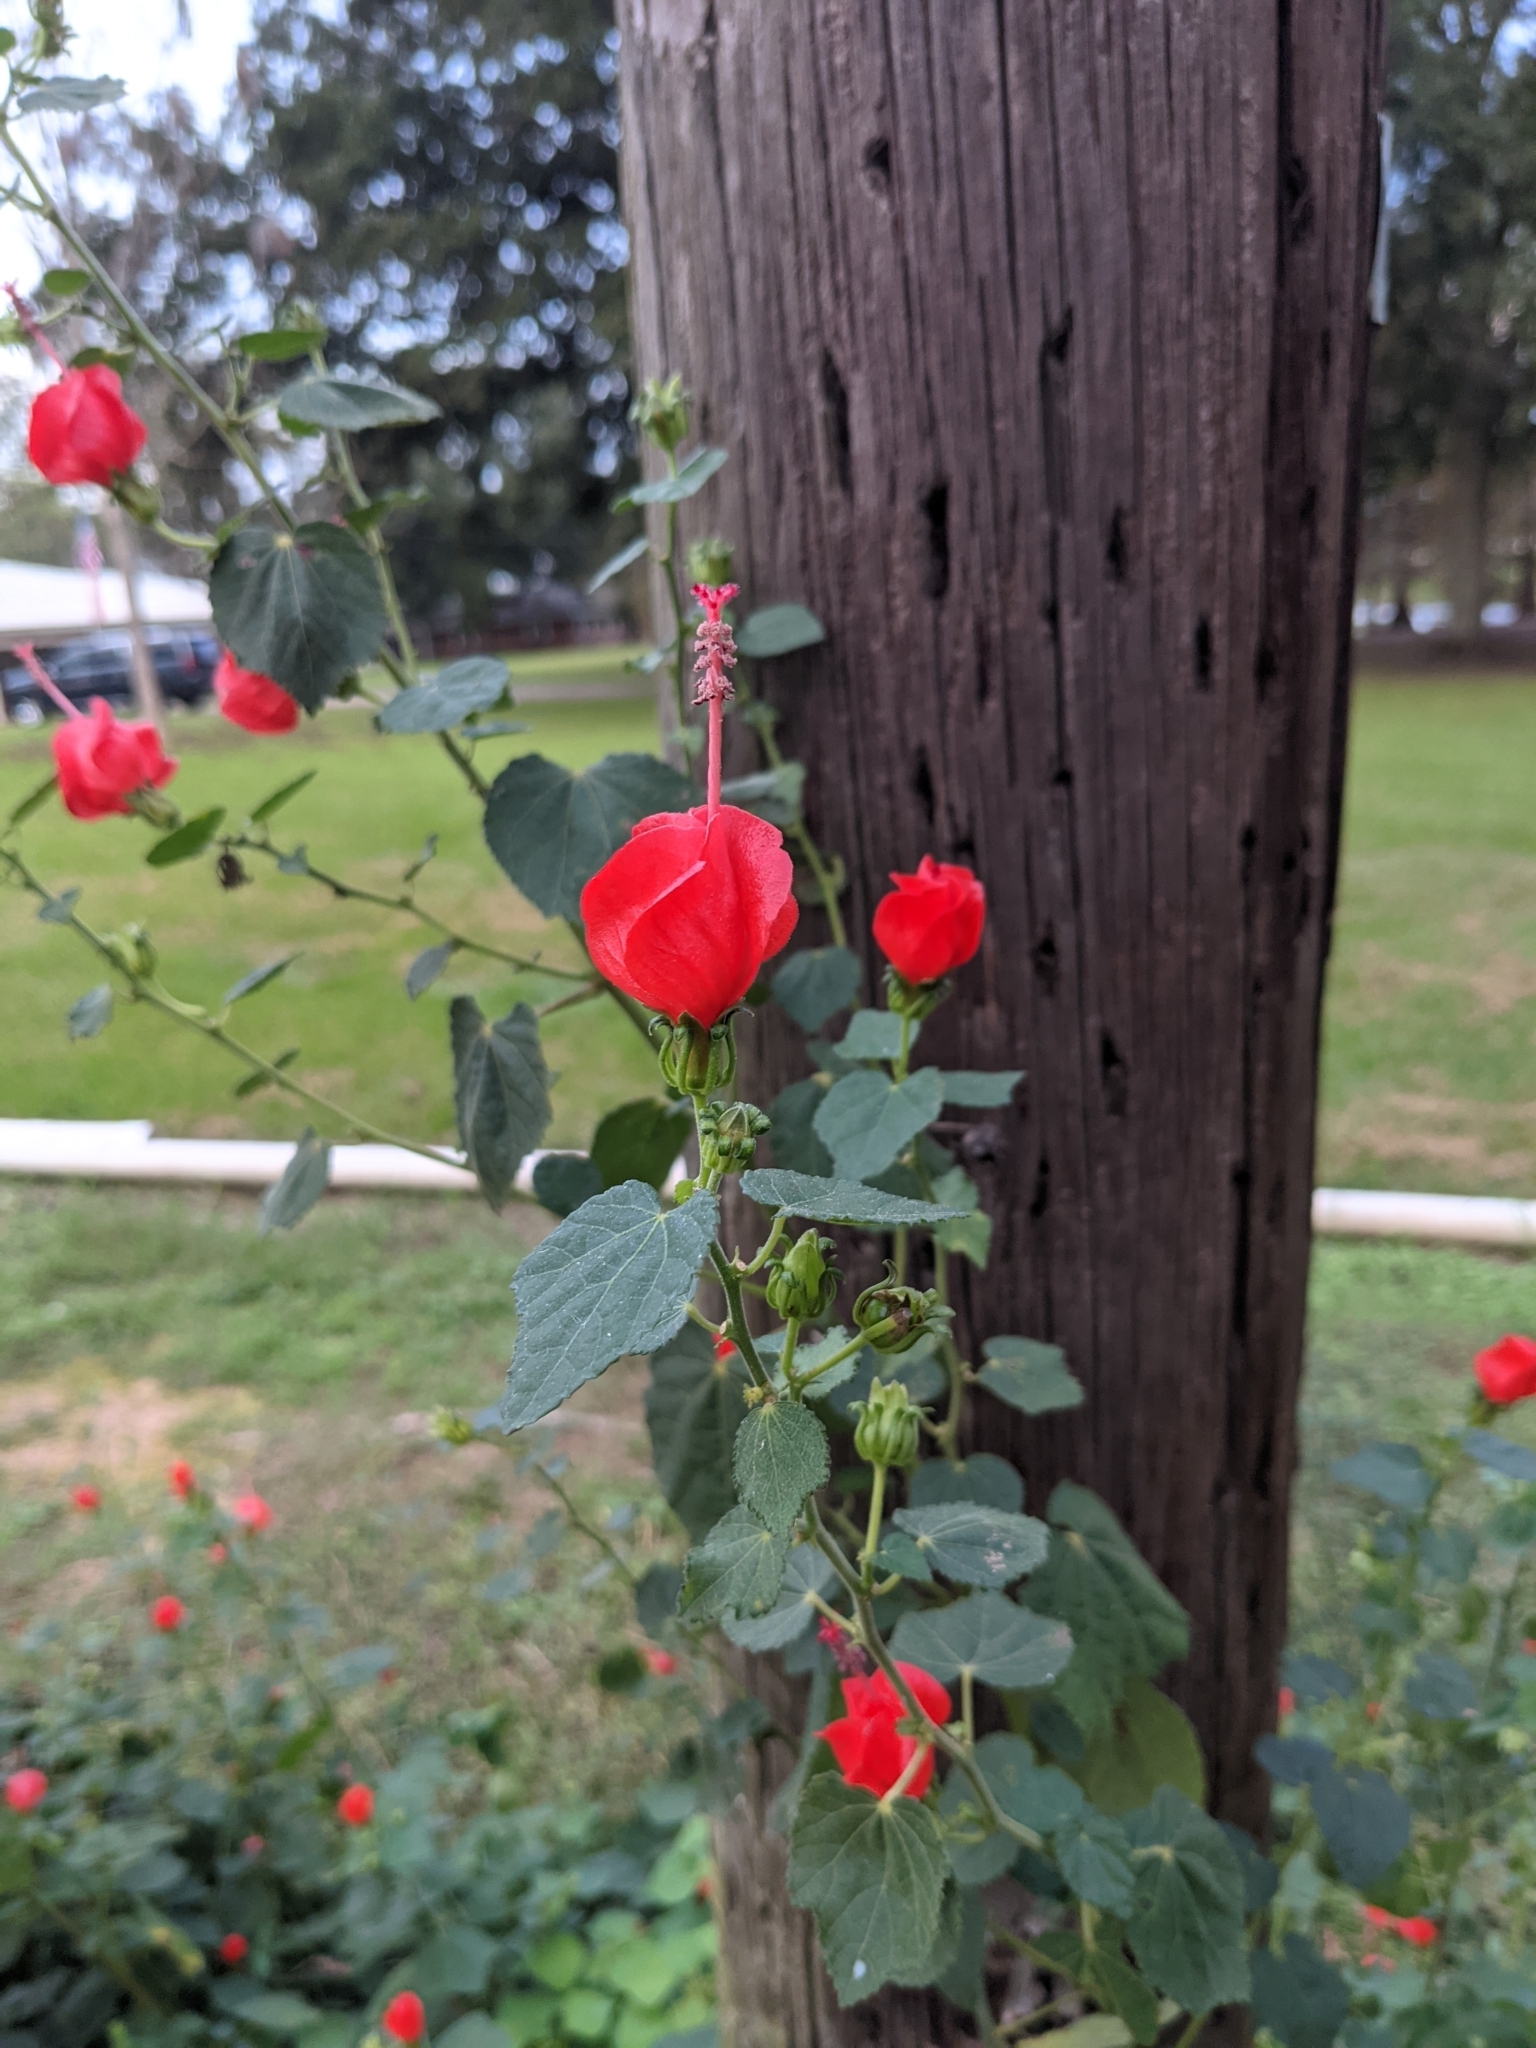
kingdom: Plantae
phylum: Tracheophyta
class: Magnoliopsida
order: Malvales
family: Malvaceae
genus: Malvaviscus
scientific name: Malvaviscus arboreus
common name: Wax mallow
